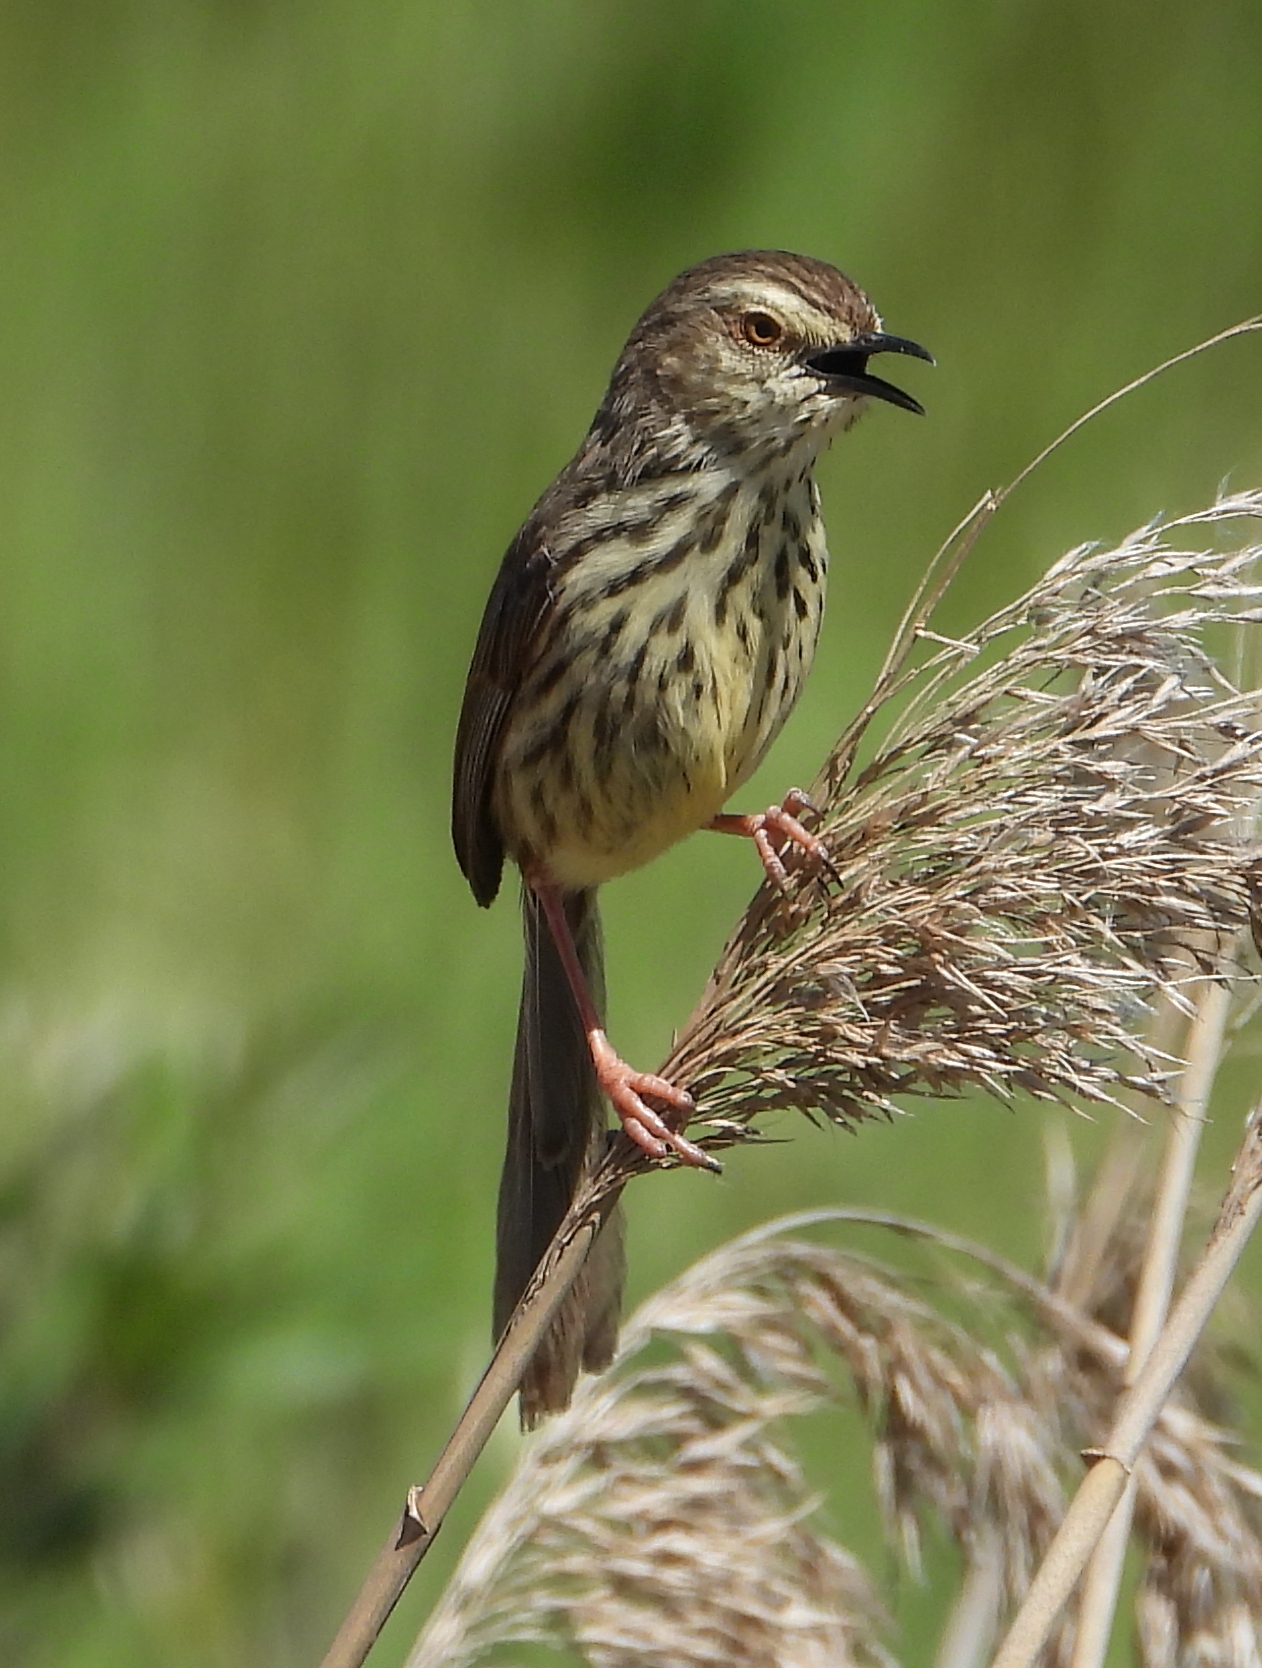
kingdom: Animalia
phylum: Chordata
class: Aves
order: Passeriformes
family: Cisticolidae
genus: Prinia
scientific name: Prinia maculosa
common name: Karoo prinia
